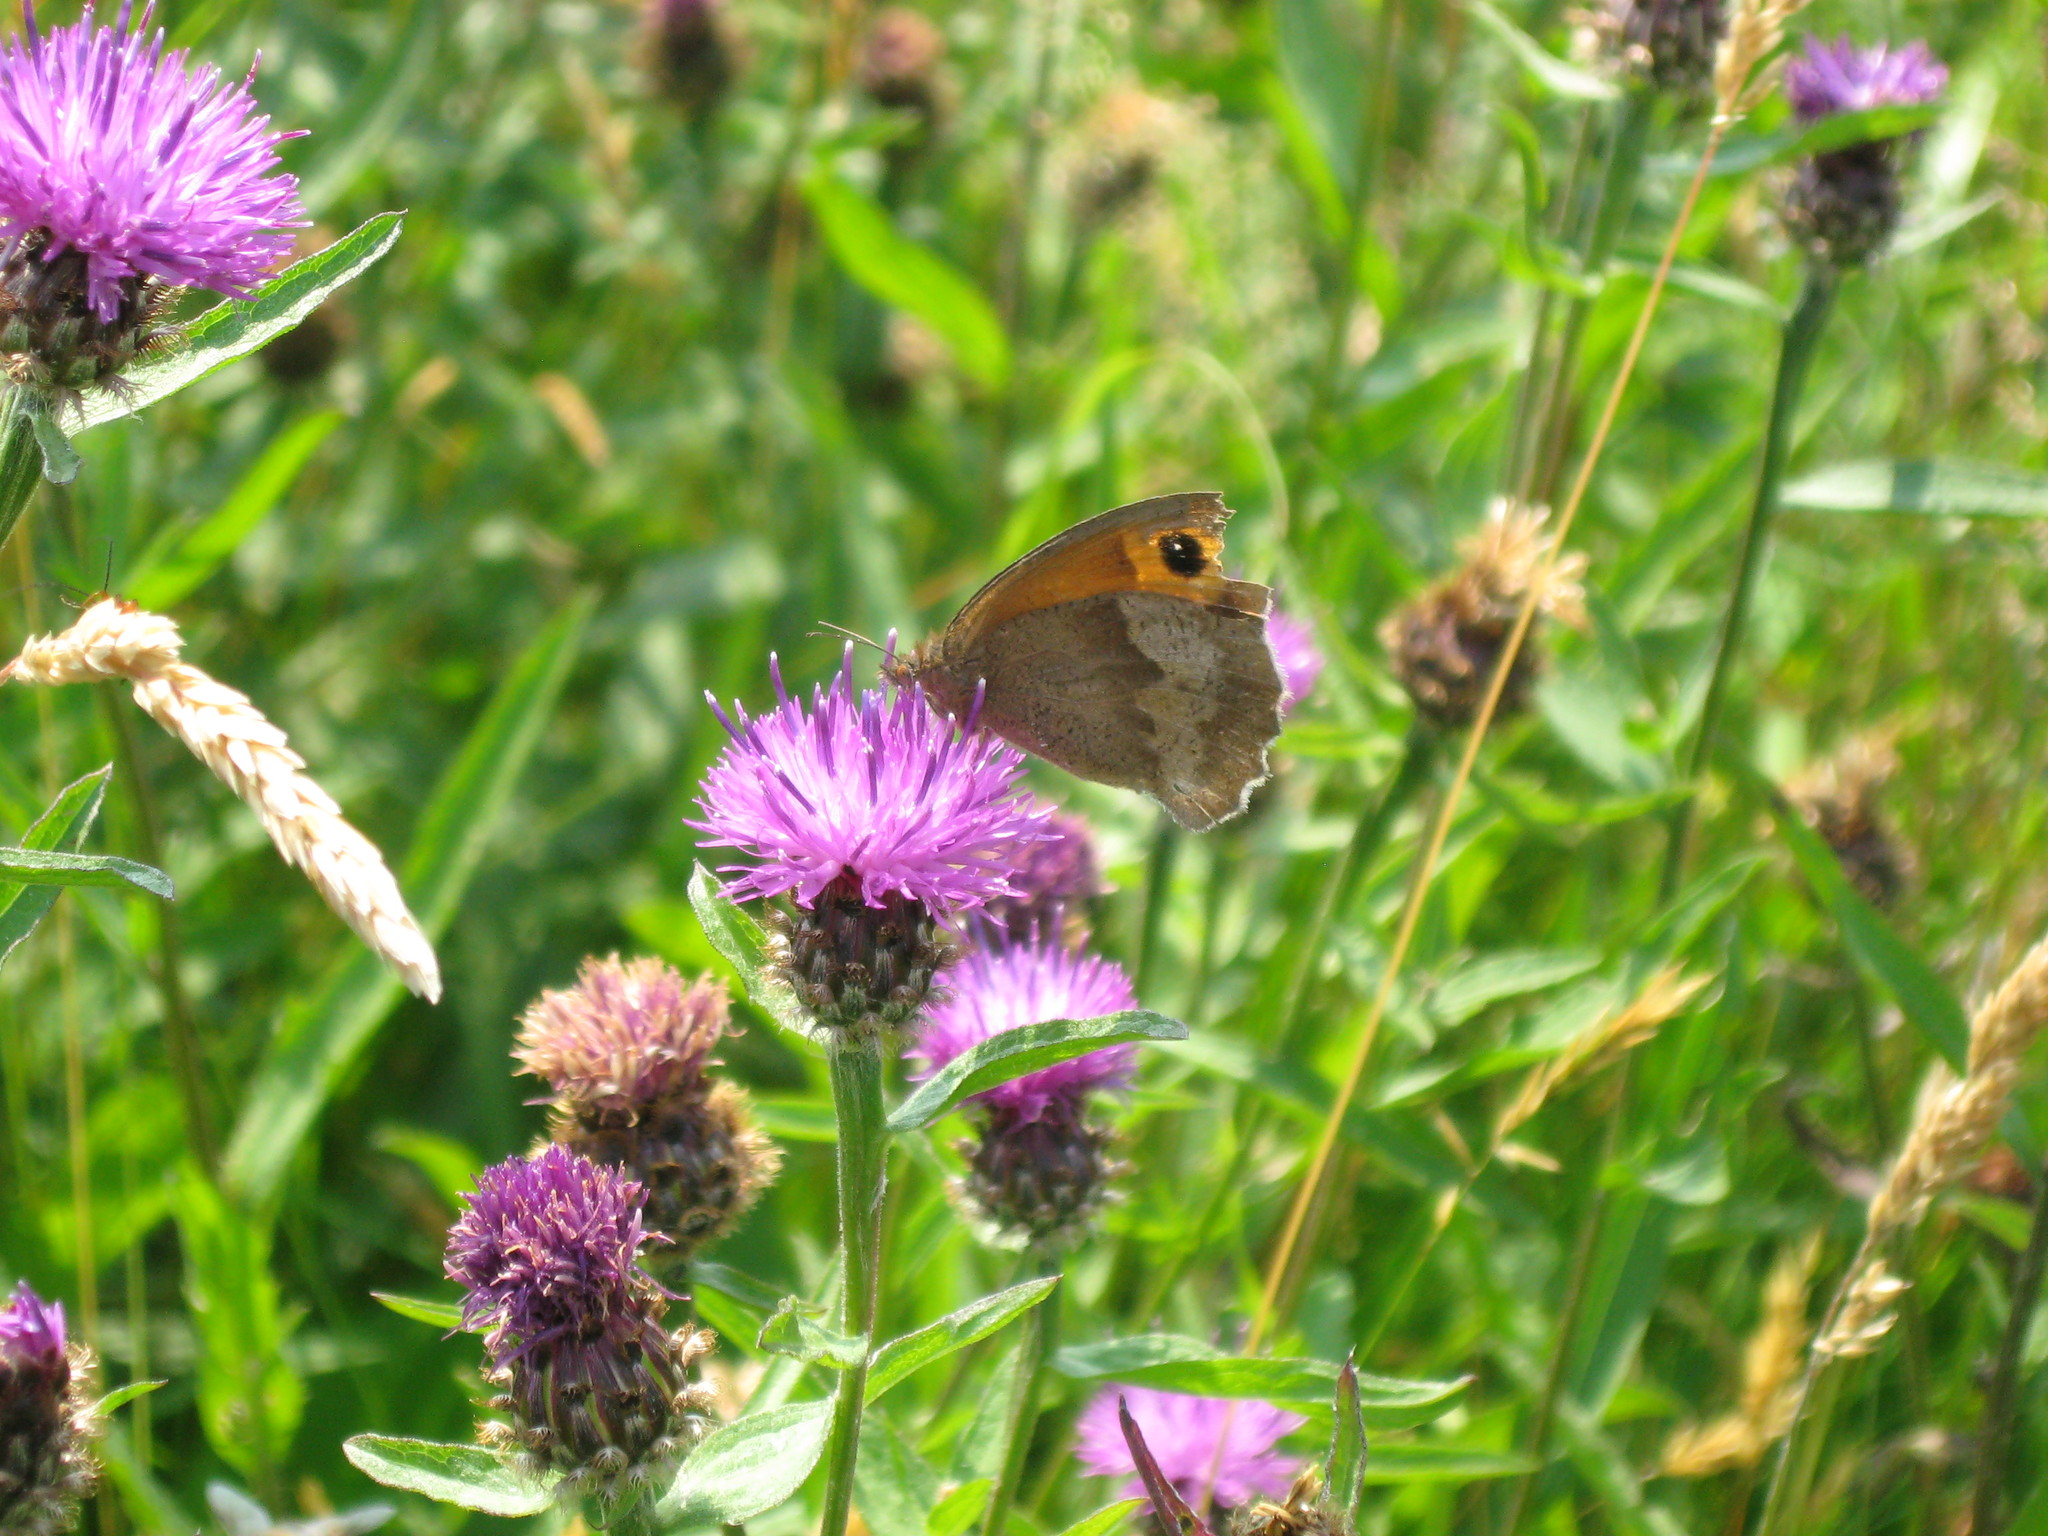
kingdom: Animalia
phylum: Arthropoda
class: Insecta
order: Lepidoptera
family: Nymphalidae
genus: Maniola
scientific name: Maniola jurtina
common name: Meadow brown
